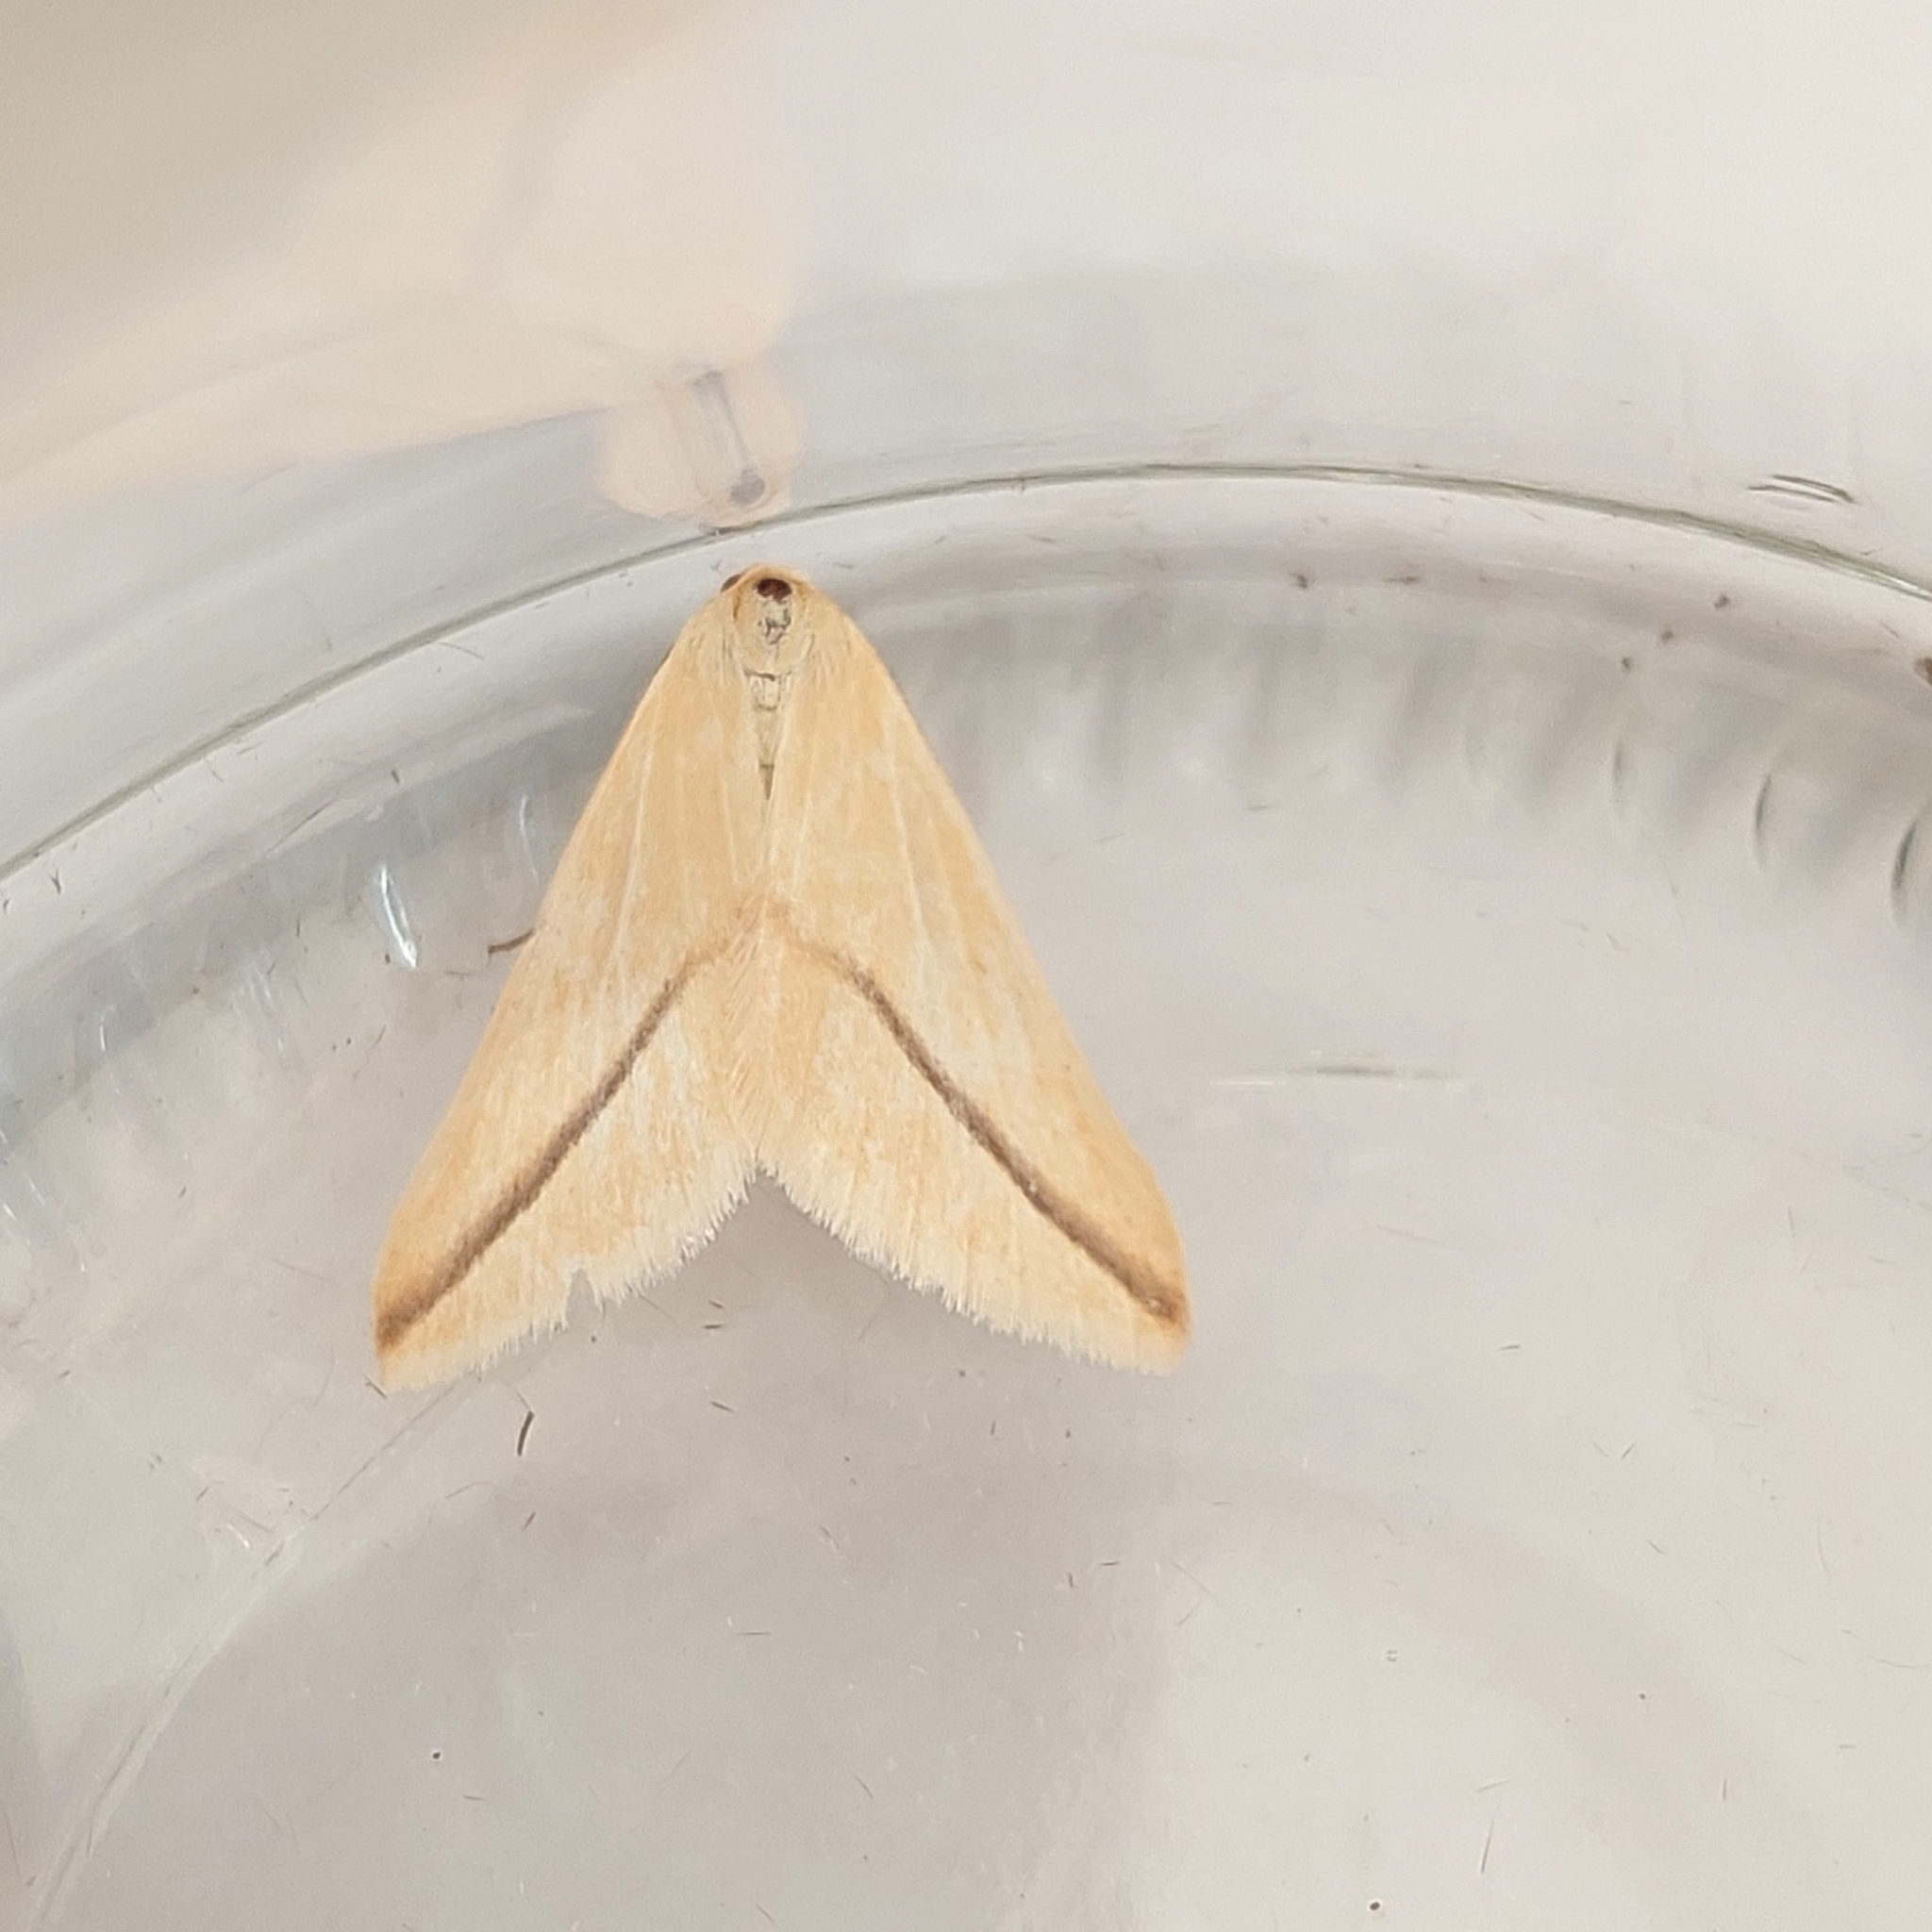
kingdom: Animalia
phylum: Arthropoda
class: Insecta
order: Lepidoptera
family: Geometridae
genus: Rhodometra
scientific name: Rhodometra sacraria
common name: Vestal
